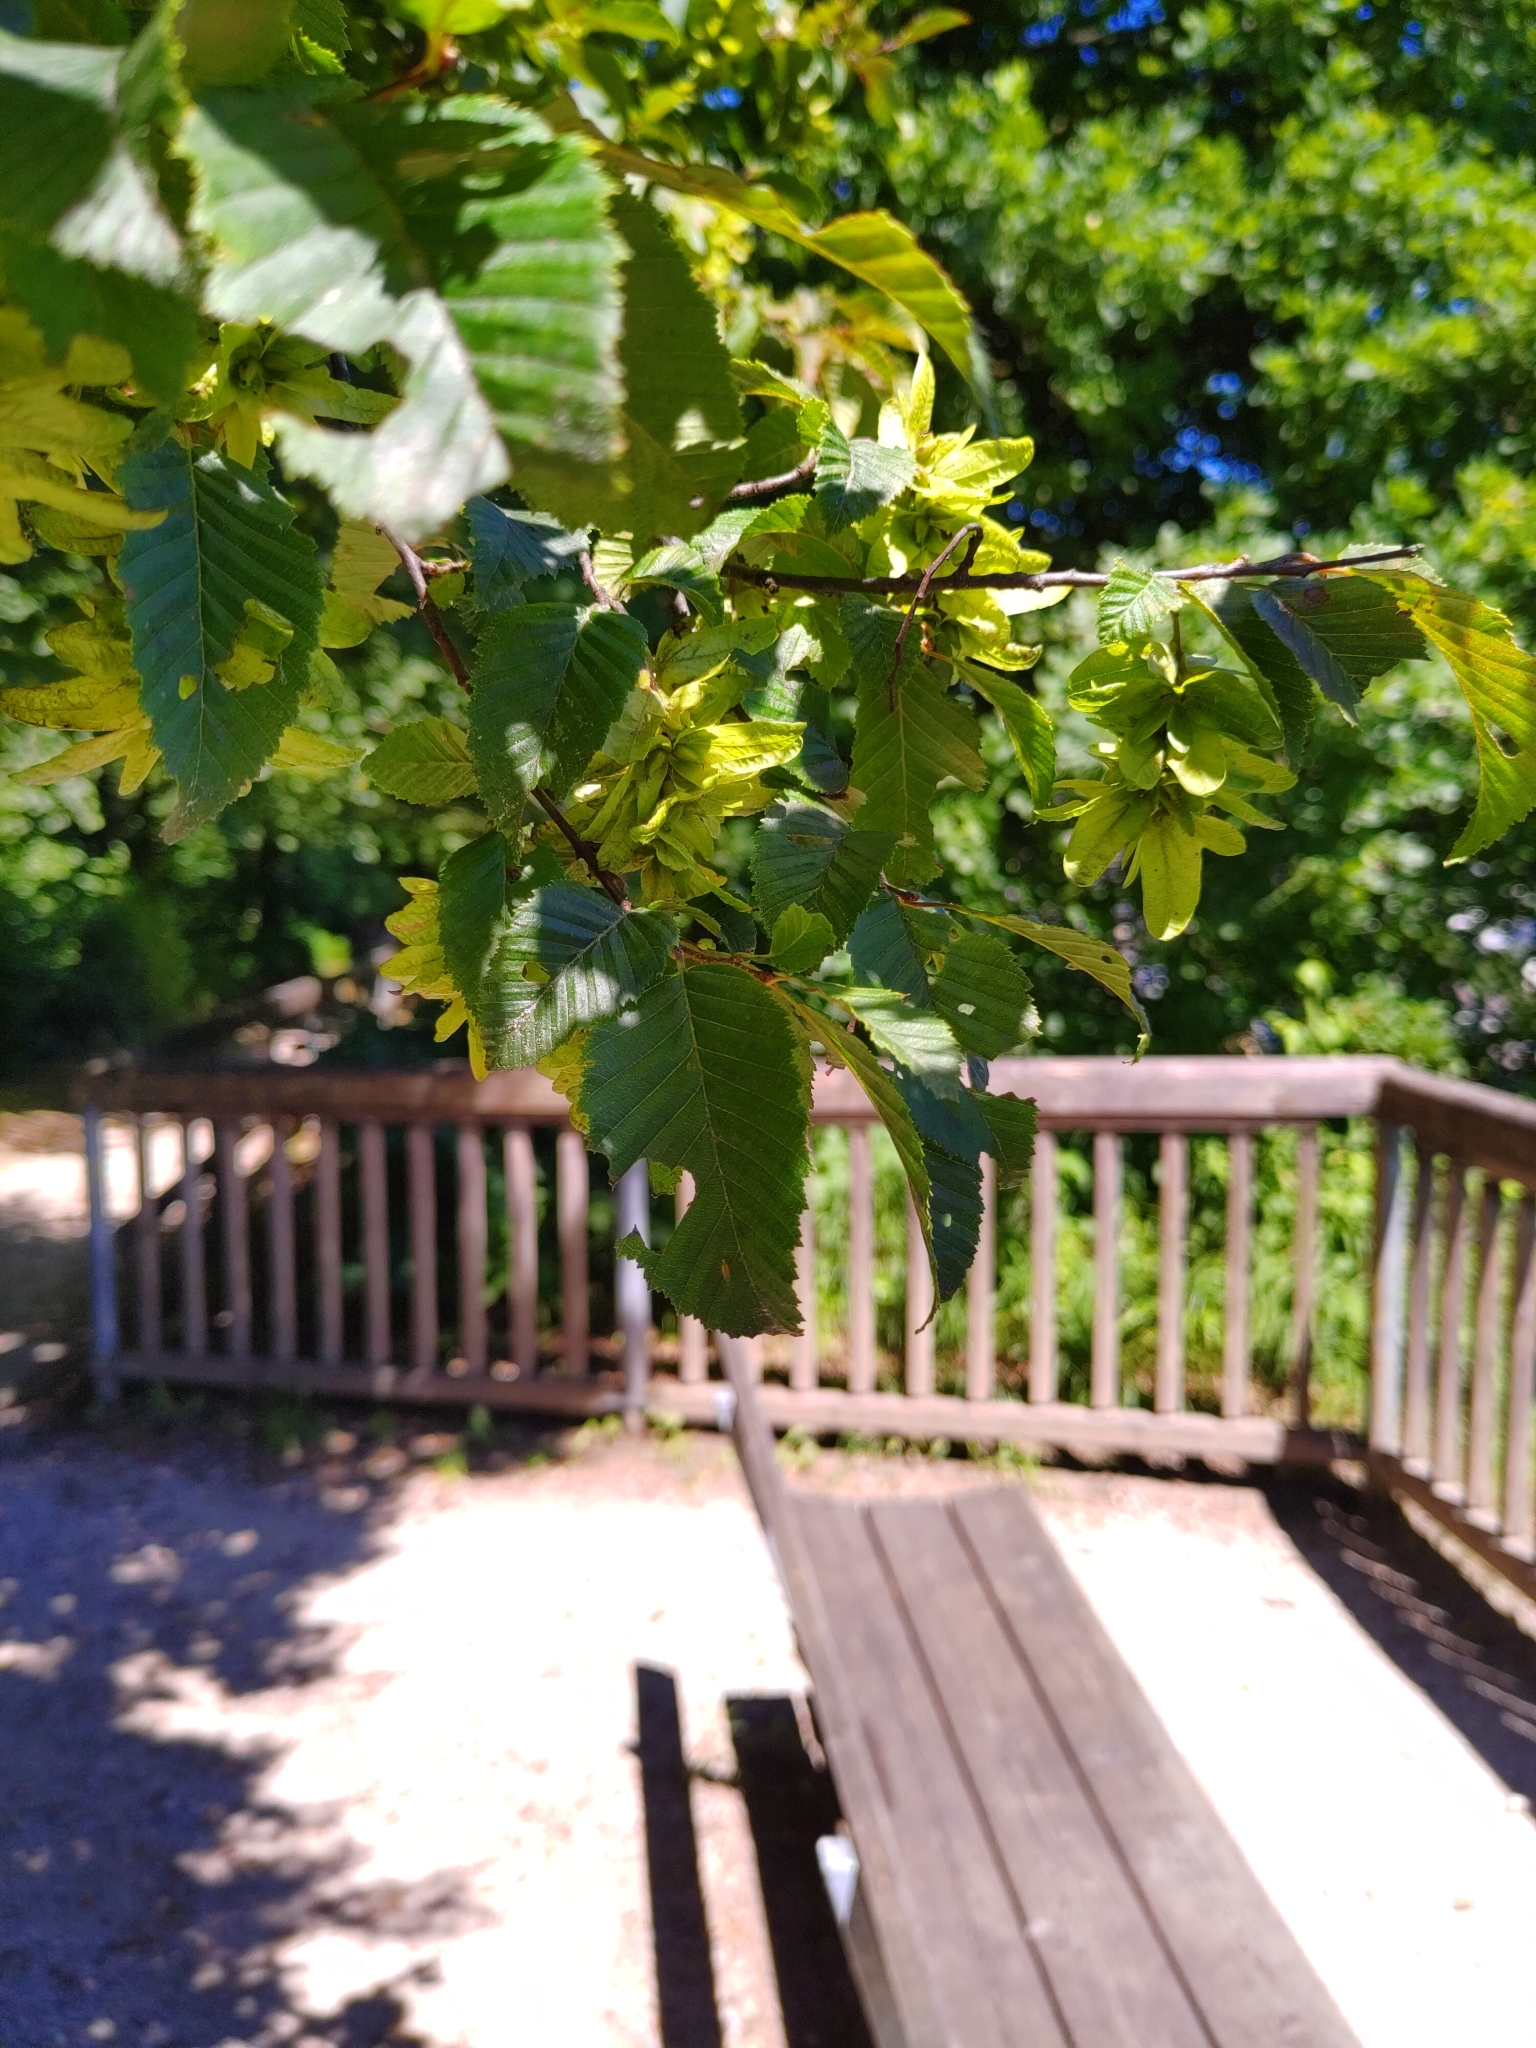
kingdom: Plantae
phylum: Tracheophyta
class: Magnoliopsida
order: Fagales
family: Betulaceae
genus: Carpinus
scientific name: Carpinus betulus
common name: Hornbeam
